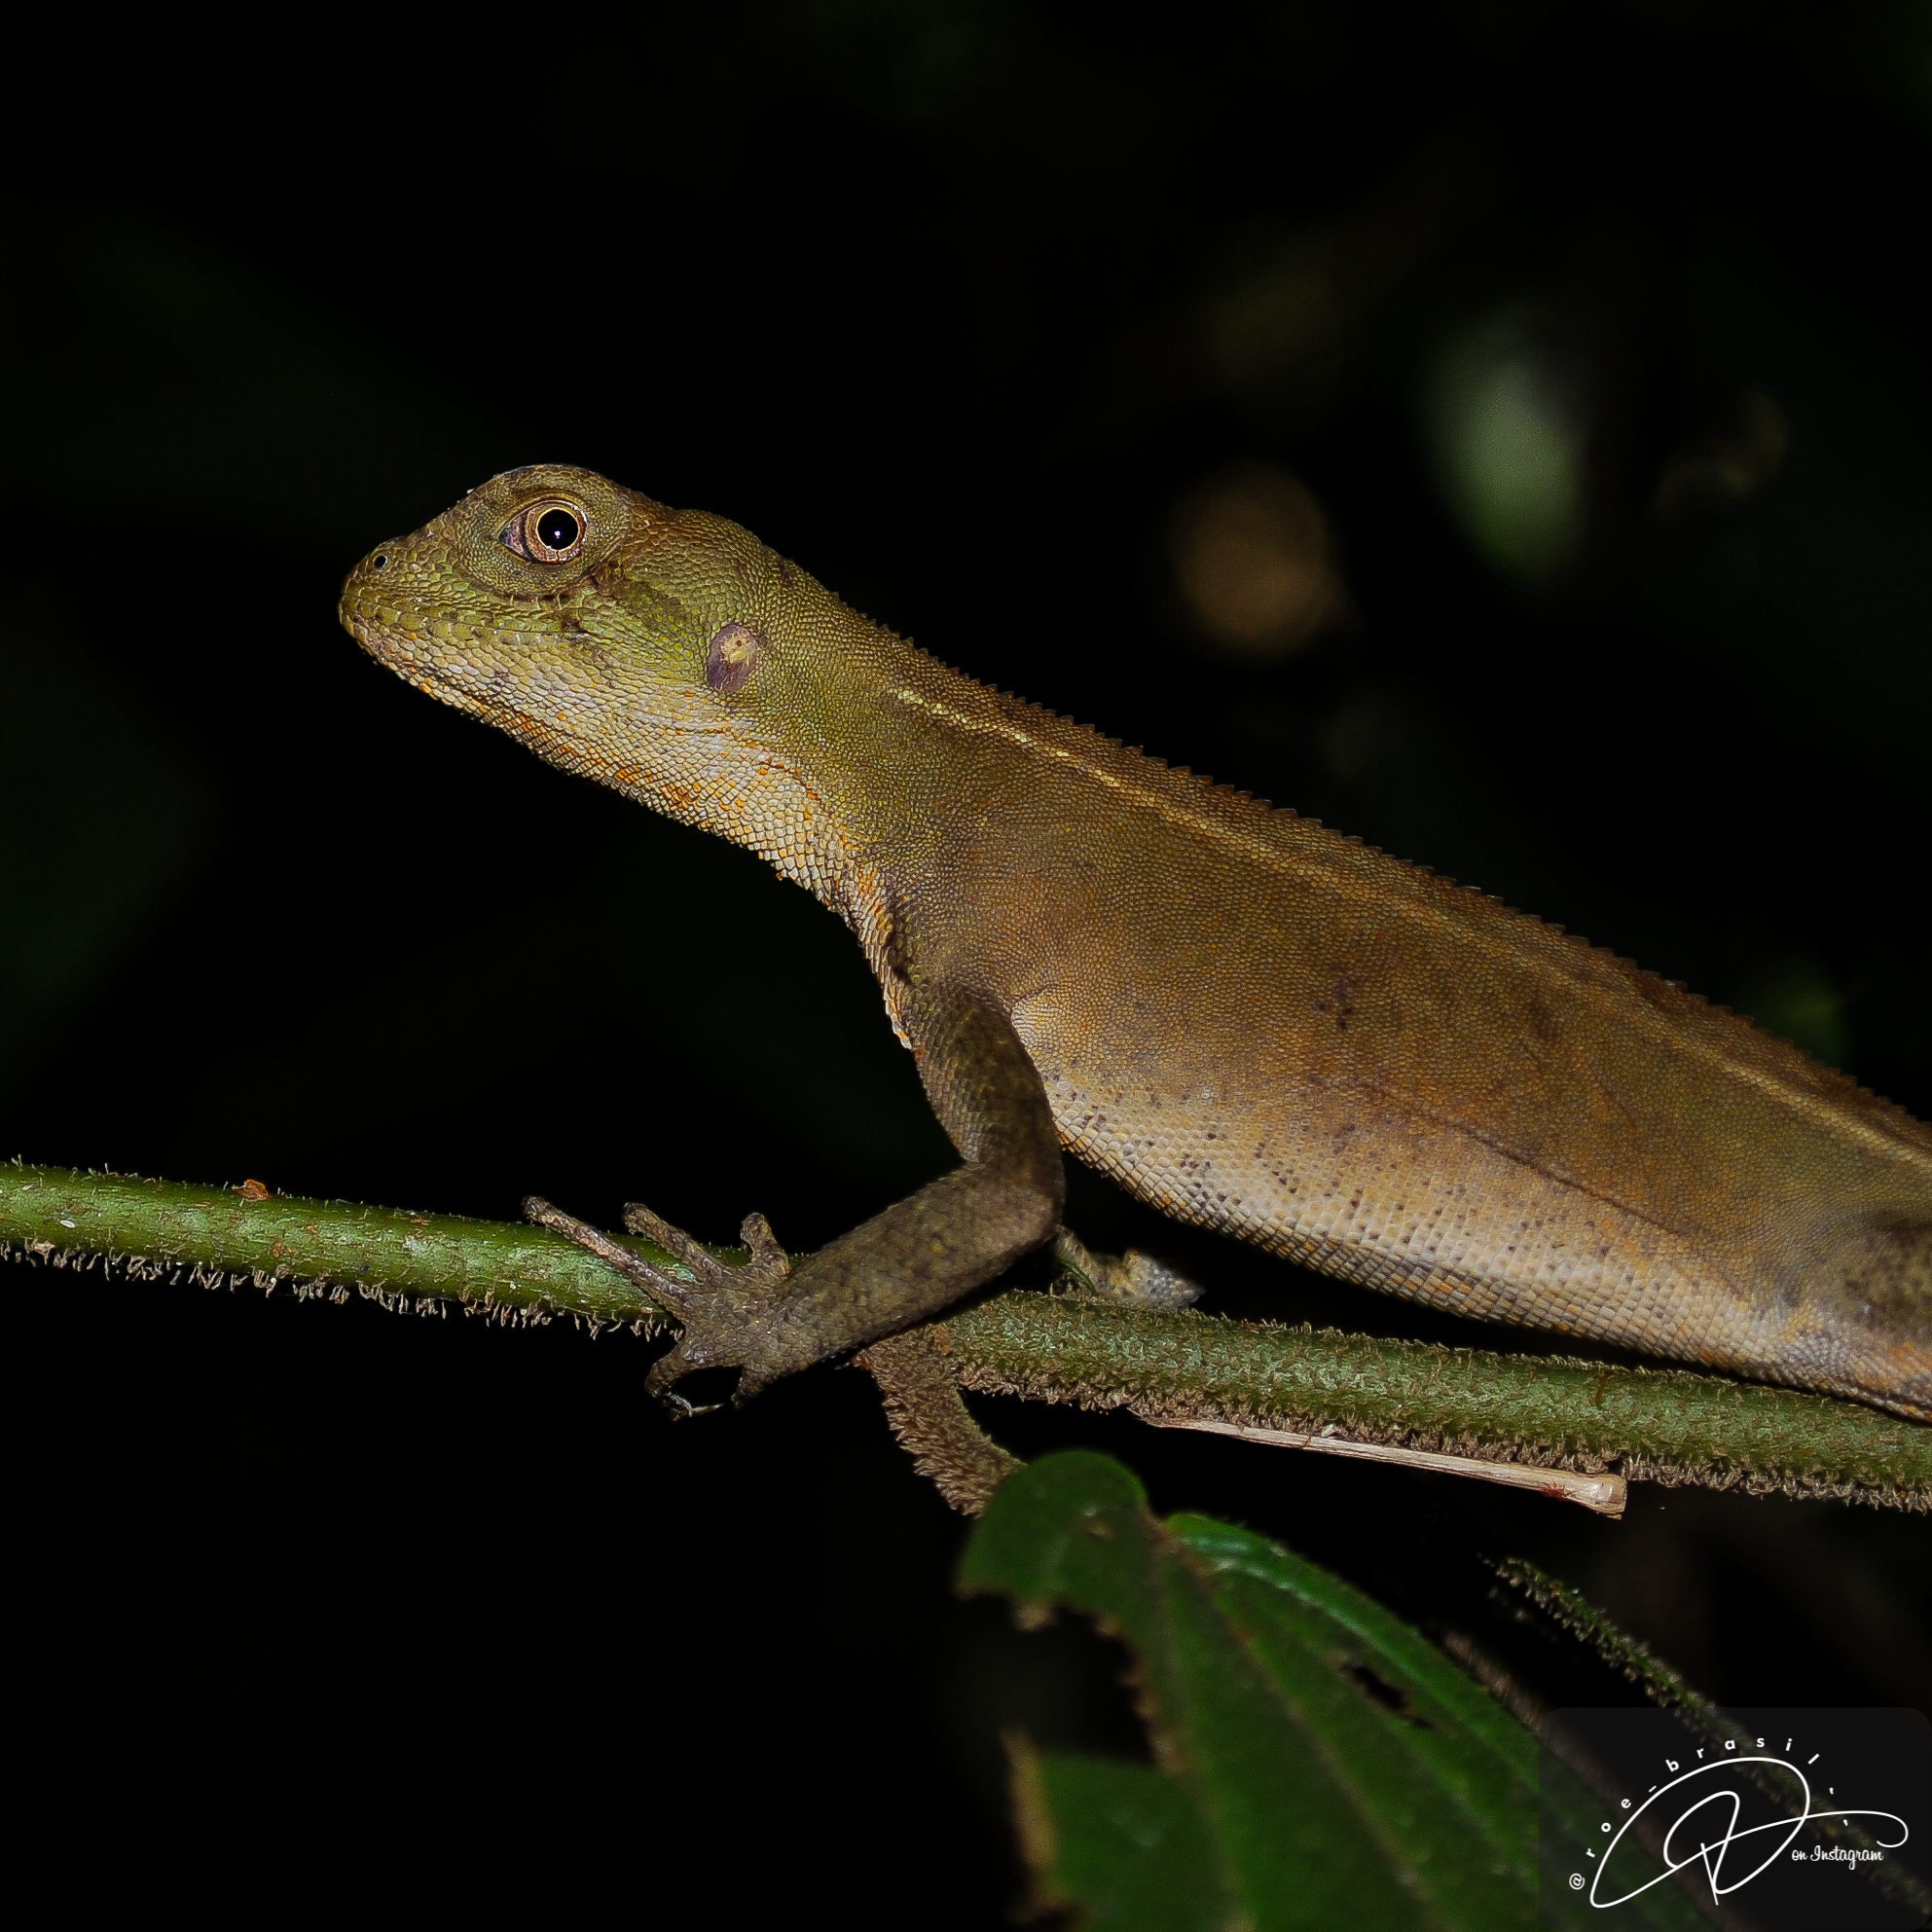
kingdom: Animalia
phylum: Chordata
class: Squamata
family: Leiosauridae
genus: Enyalius
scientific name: Enyalius perditus
